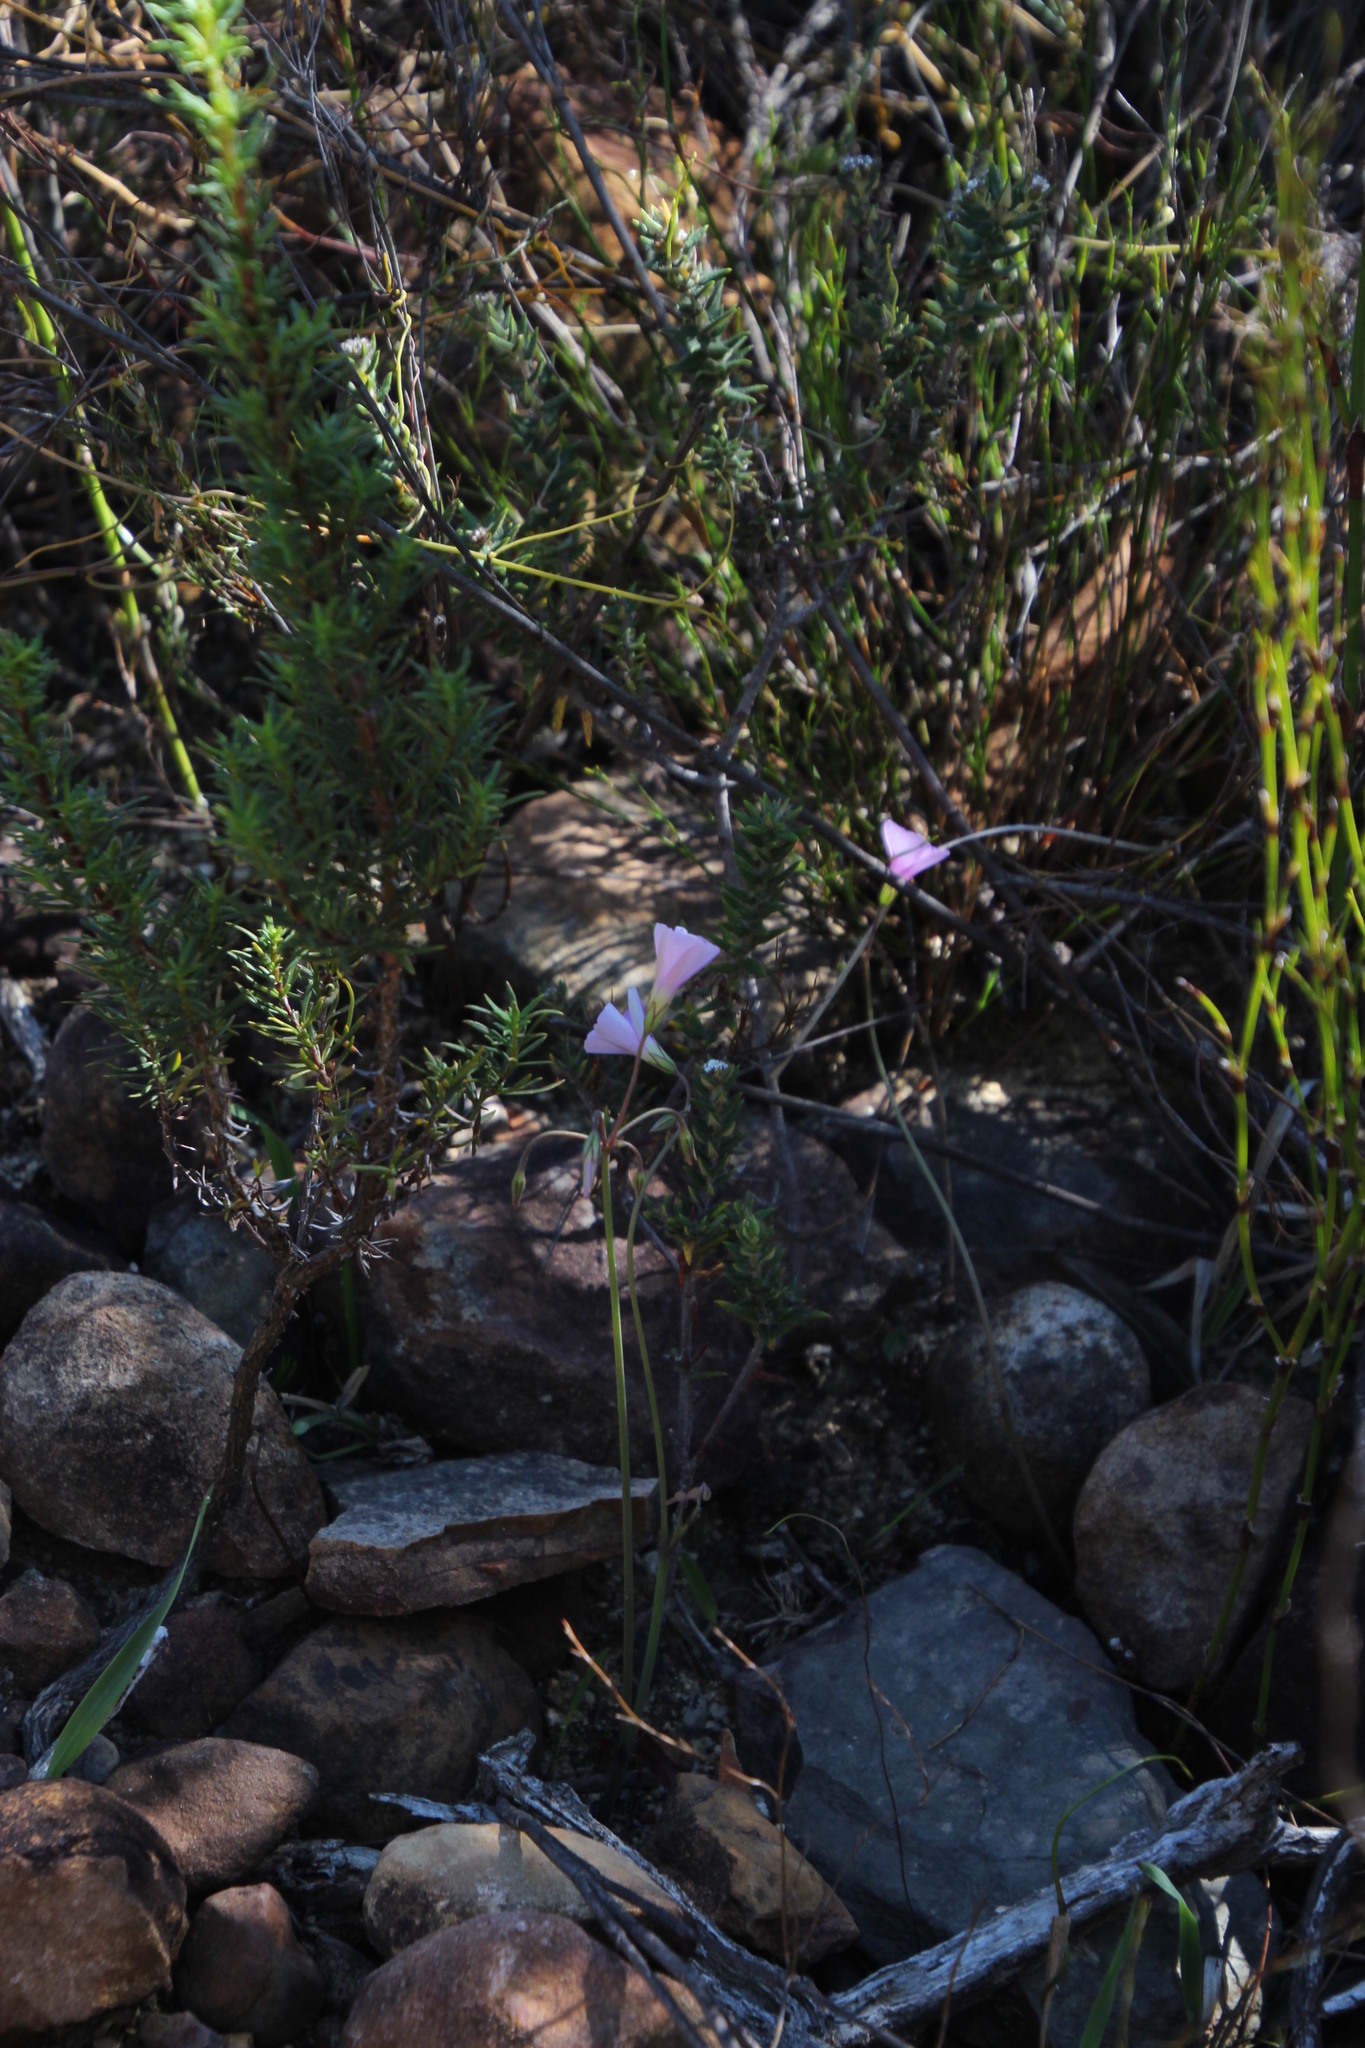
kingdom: Plantae
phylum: Tracheophyta
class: Magnoliopsida
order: Oxalidales
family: Oxalidaceae
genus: Oxalis
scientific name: Oxalis livida
